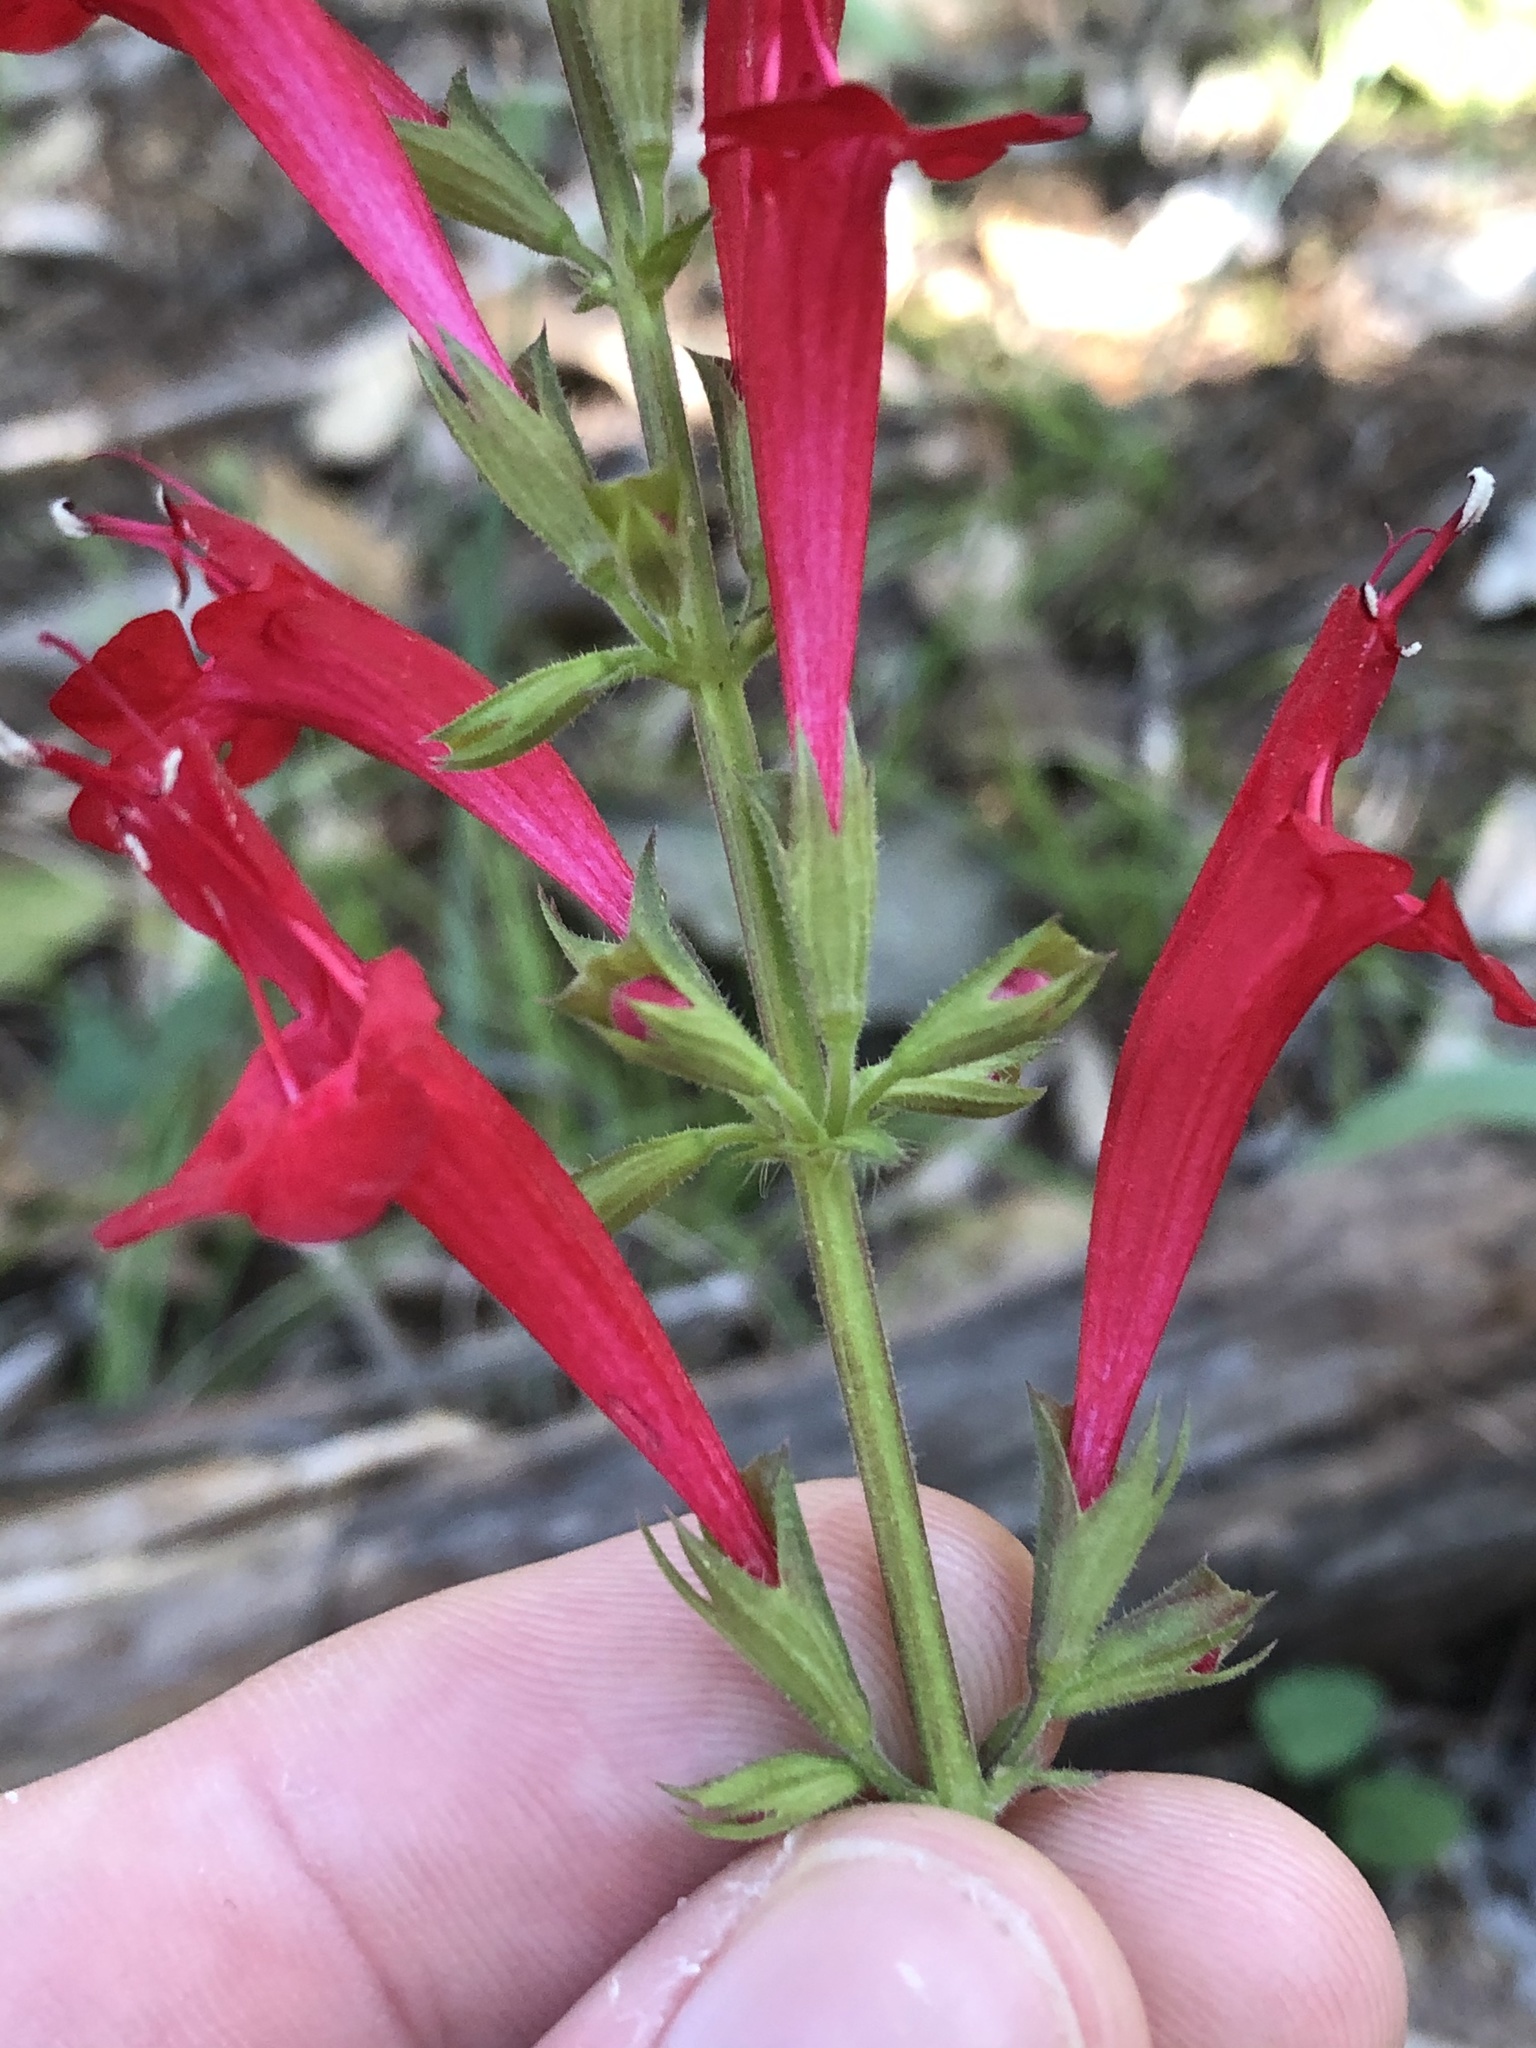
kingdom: Plantae
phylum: Tracheophyta
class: Magnoliopsida
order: Lamiales
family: Lamiaceae
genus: Salvia
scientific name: Salvia roemeriana
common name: Cedar sage
